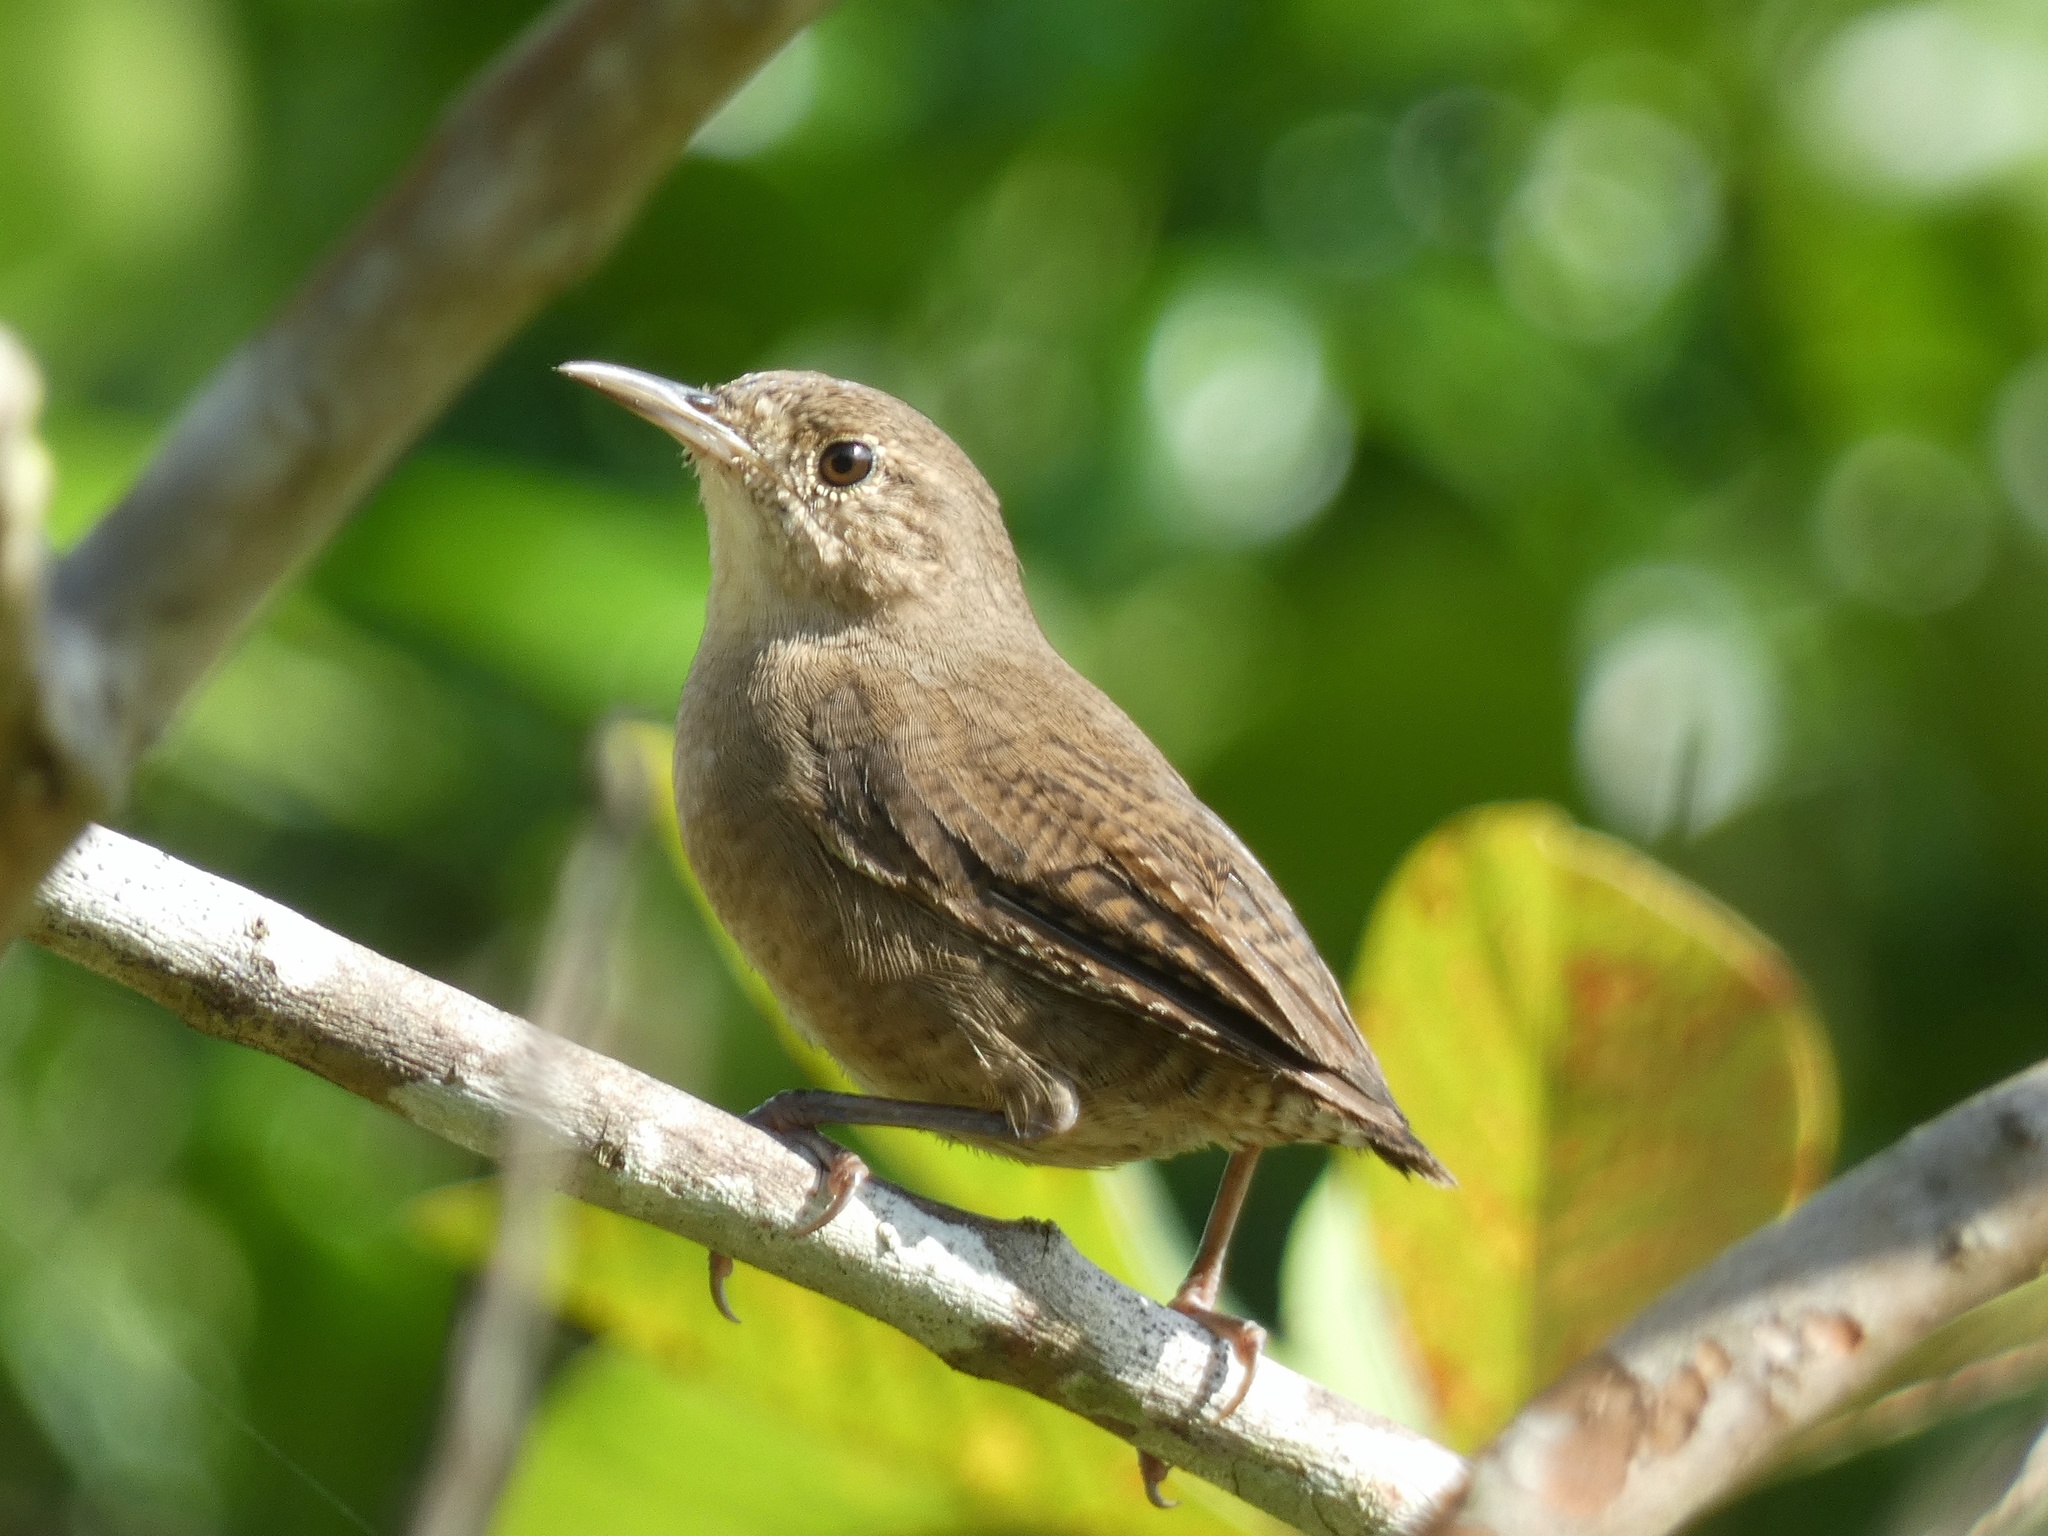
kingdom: Animalia
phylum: Chordata
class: Aves
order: Passeriformes
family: Troglodytidae
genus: Troglodytes
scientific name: Troglodytes aedon
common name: House wren
